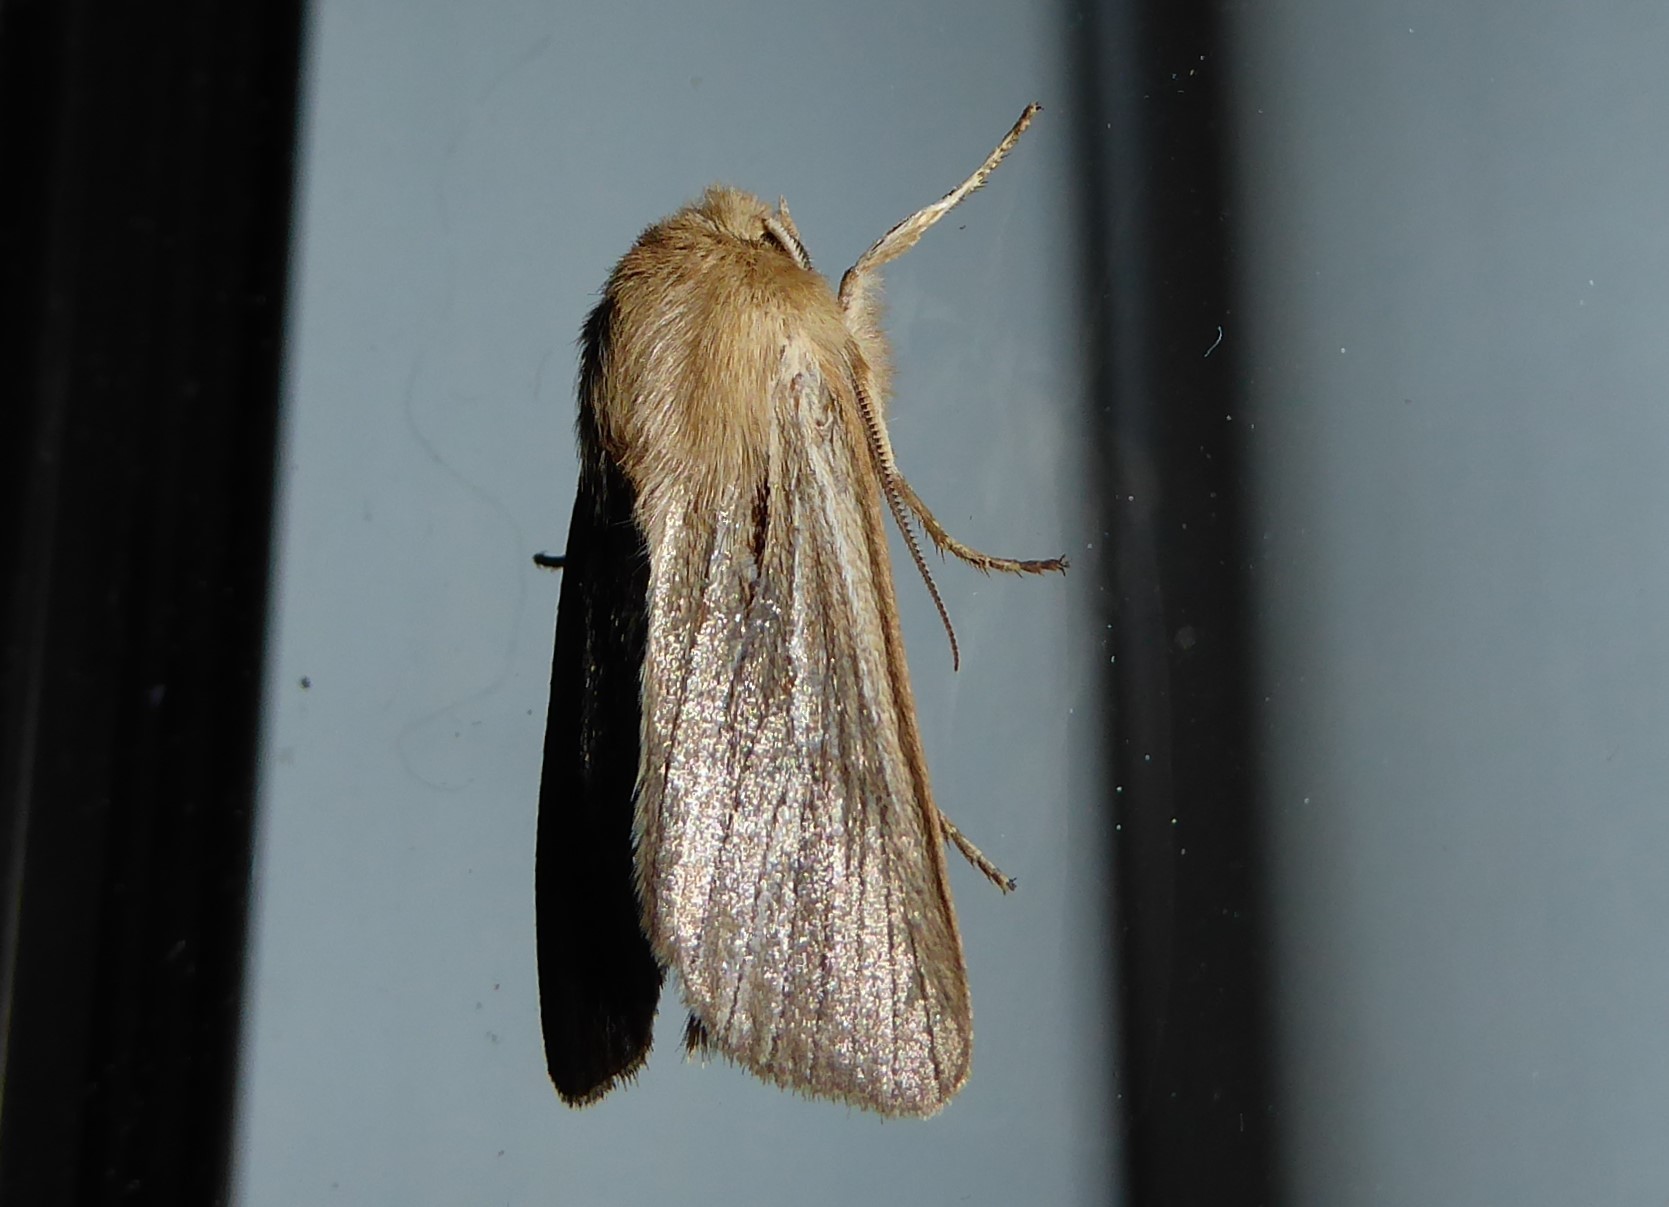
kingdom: Animalia
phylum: Arthropoda
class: Insecta
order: Lepidoptera
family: Noctuidae
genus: Ichneutica
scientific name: Ichneutica
